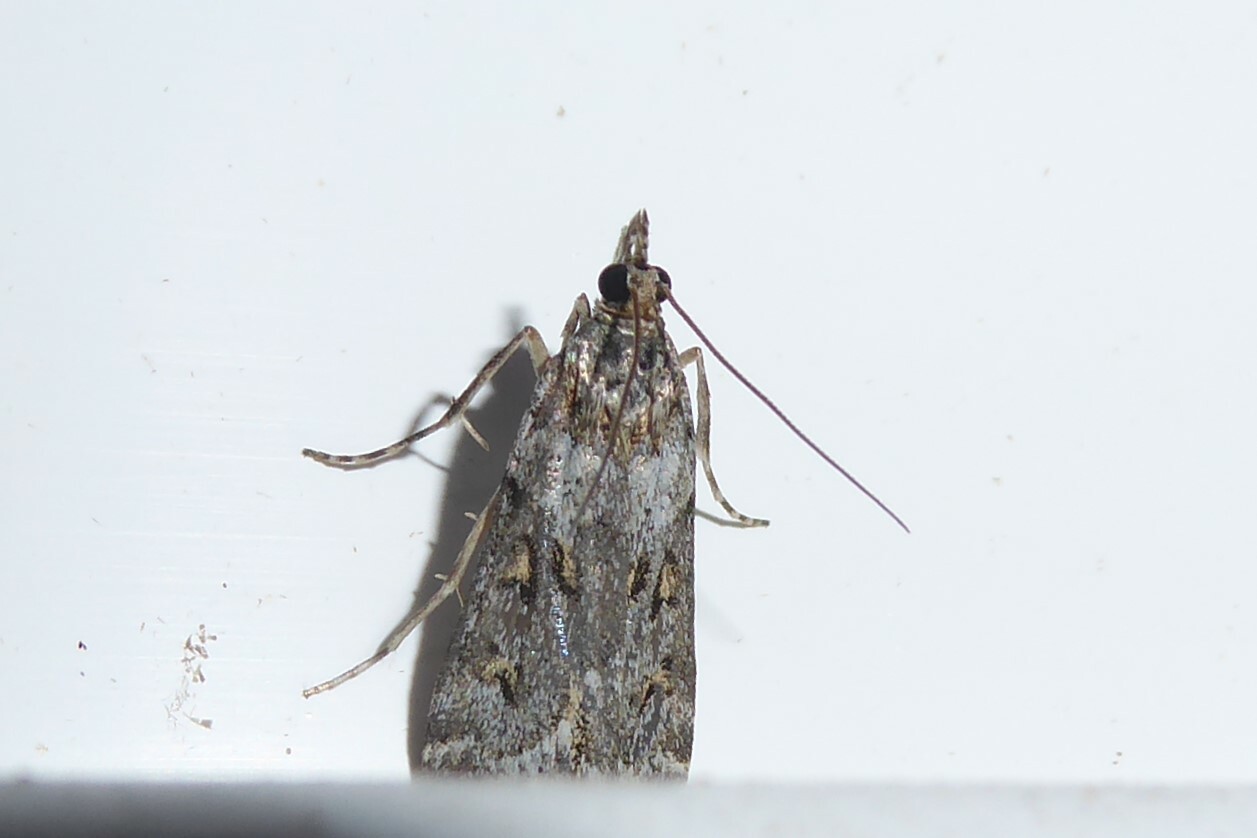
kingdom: Animalia
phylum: Arthropoda
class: Insecta
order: Lepidoptera
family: Crambidae
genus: Scoparia
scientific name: Scoparia tetracycla
